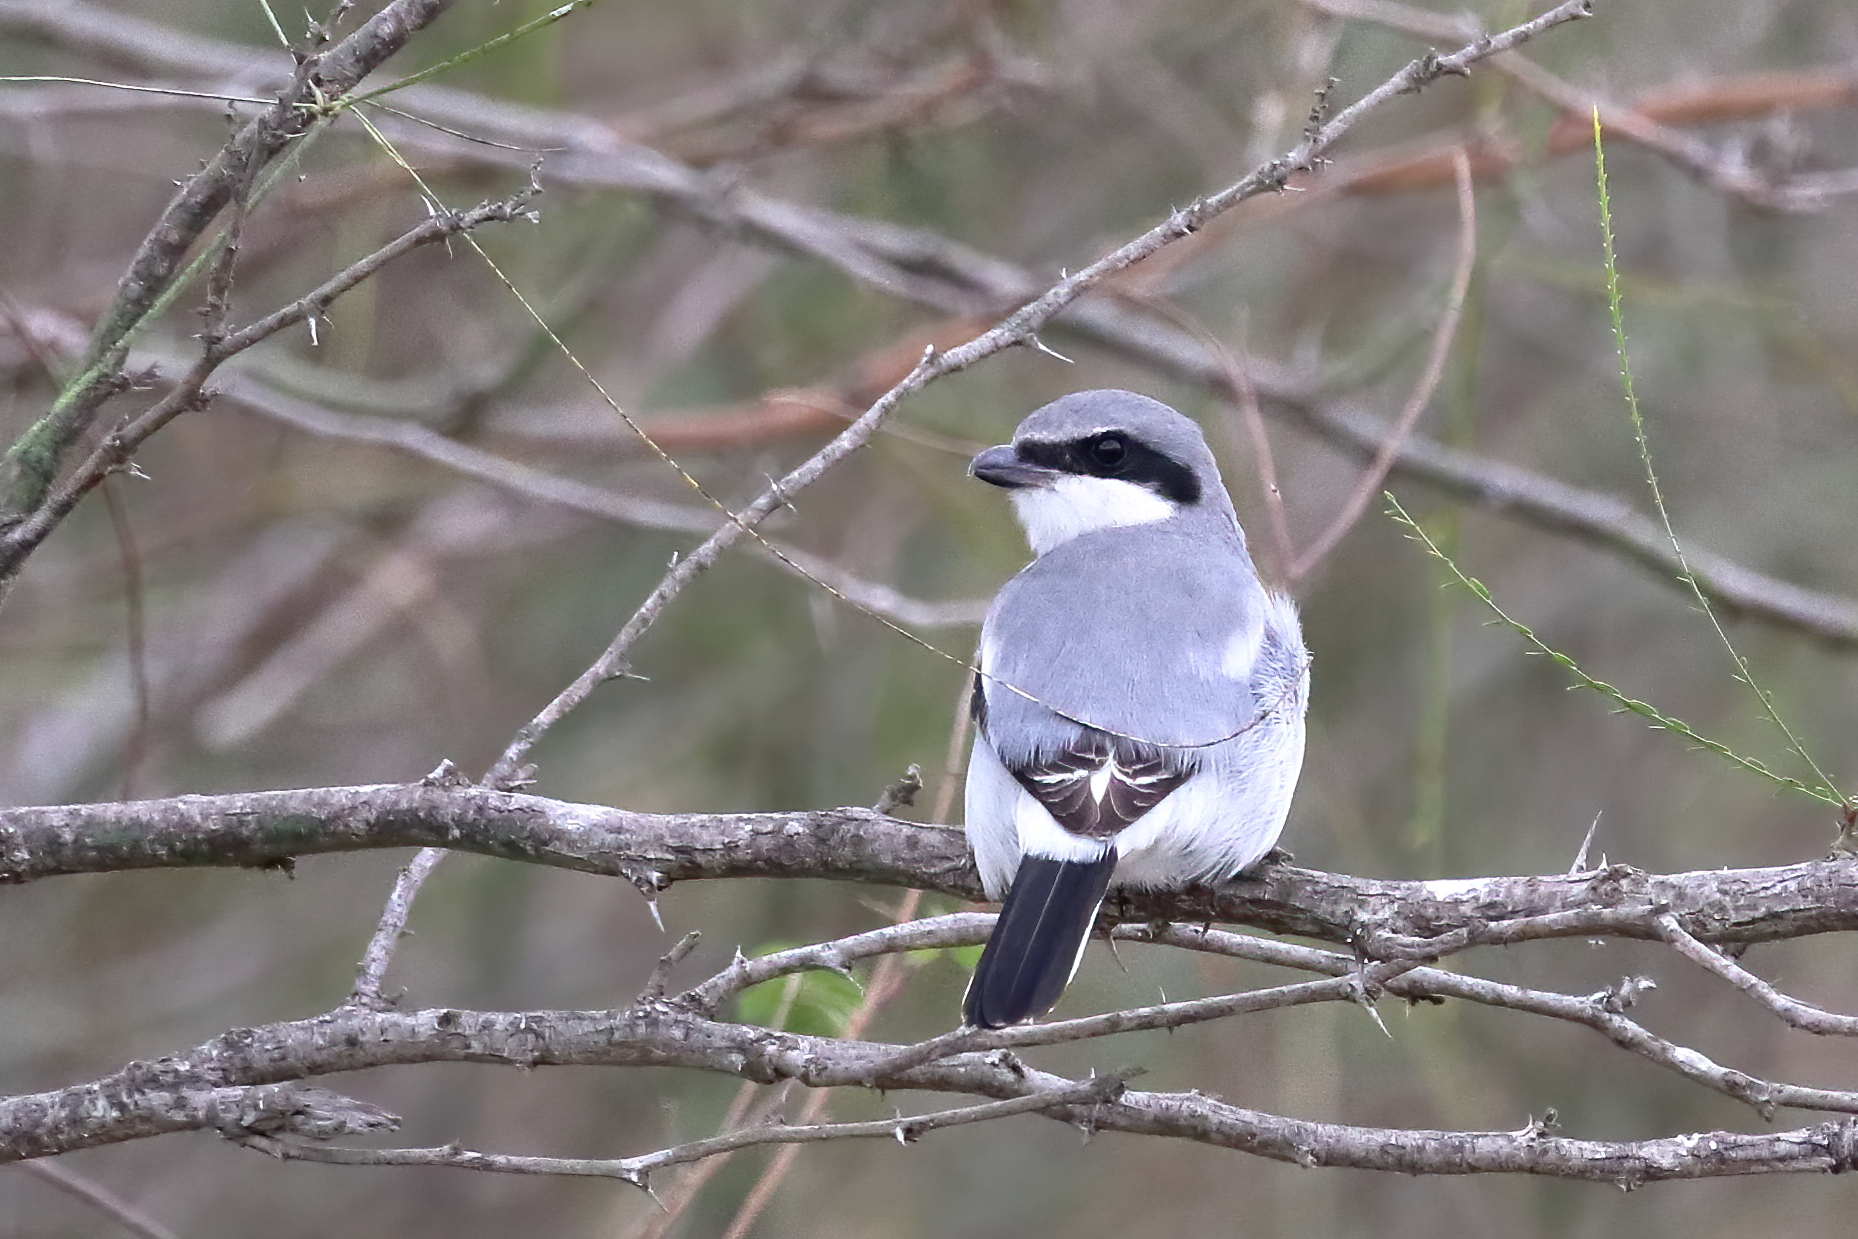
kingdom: Animalia
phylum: Chordata
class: Aves
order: Passeriformes
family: Laniidae
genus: Lanius
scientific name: Lanius ludovicianus
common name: Loggerhead shrike
